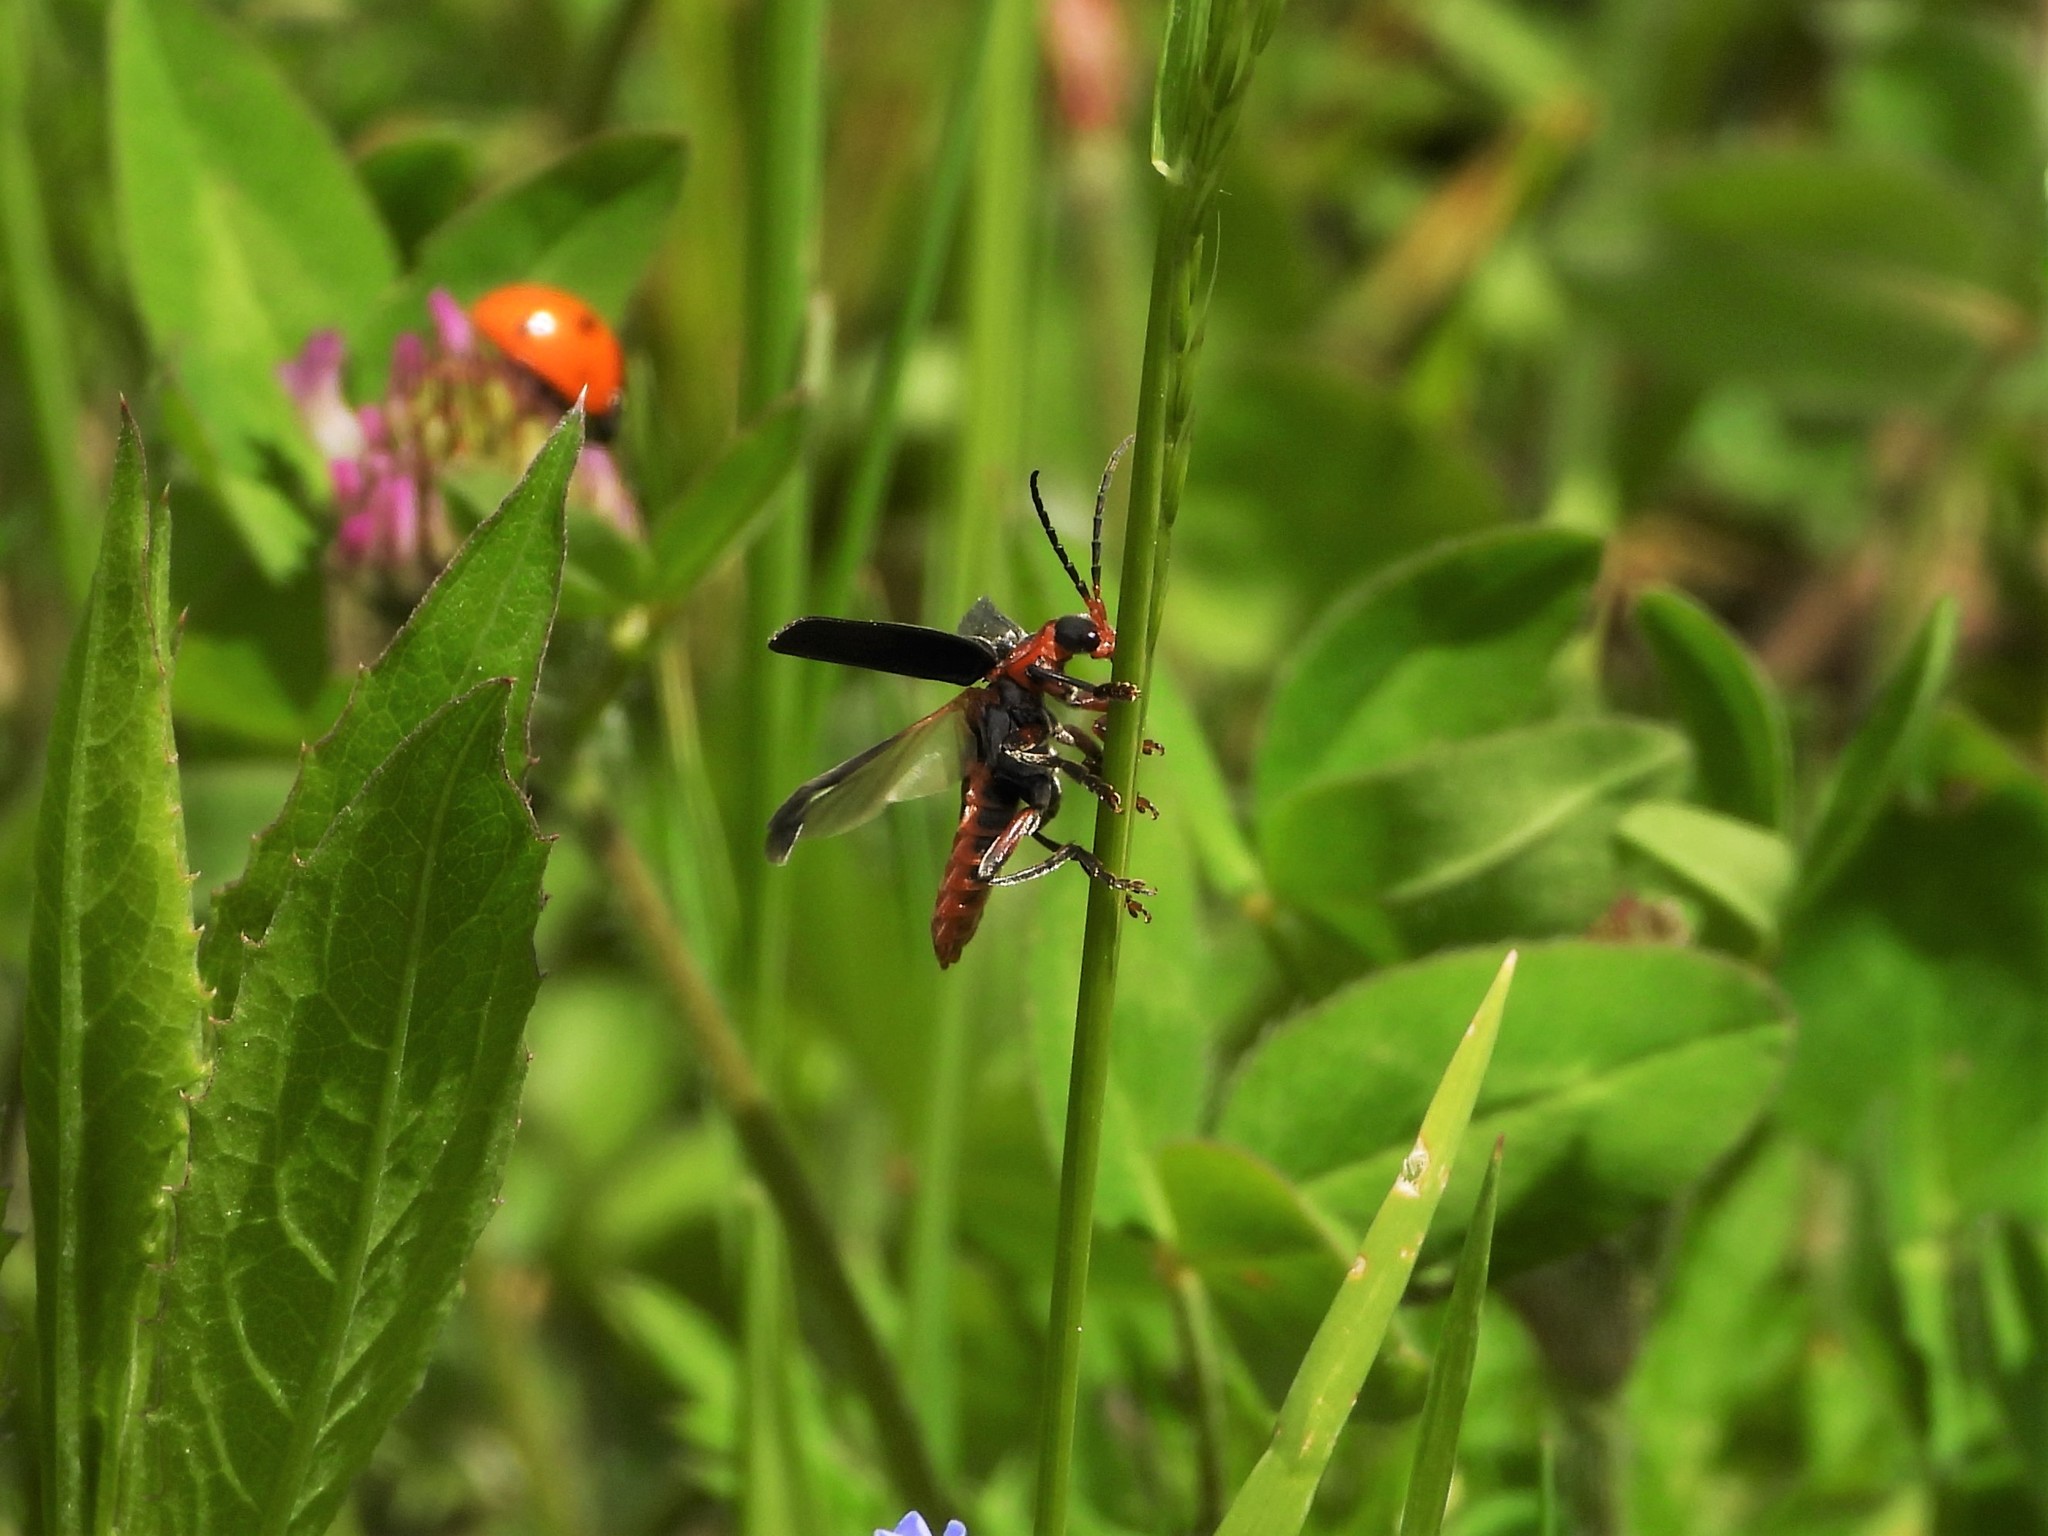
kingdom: Animalia
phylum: Arthropoda
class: Insecta
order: Coleoptera
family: Cantharidae
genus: Cantharis
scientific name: Cantharis rustica
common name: Soldier beetle
